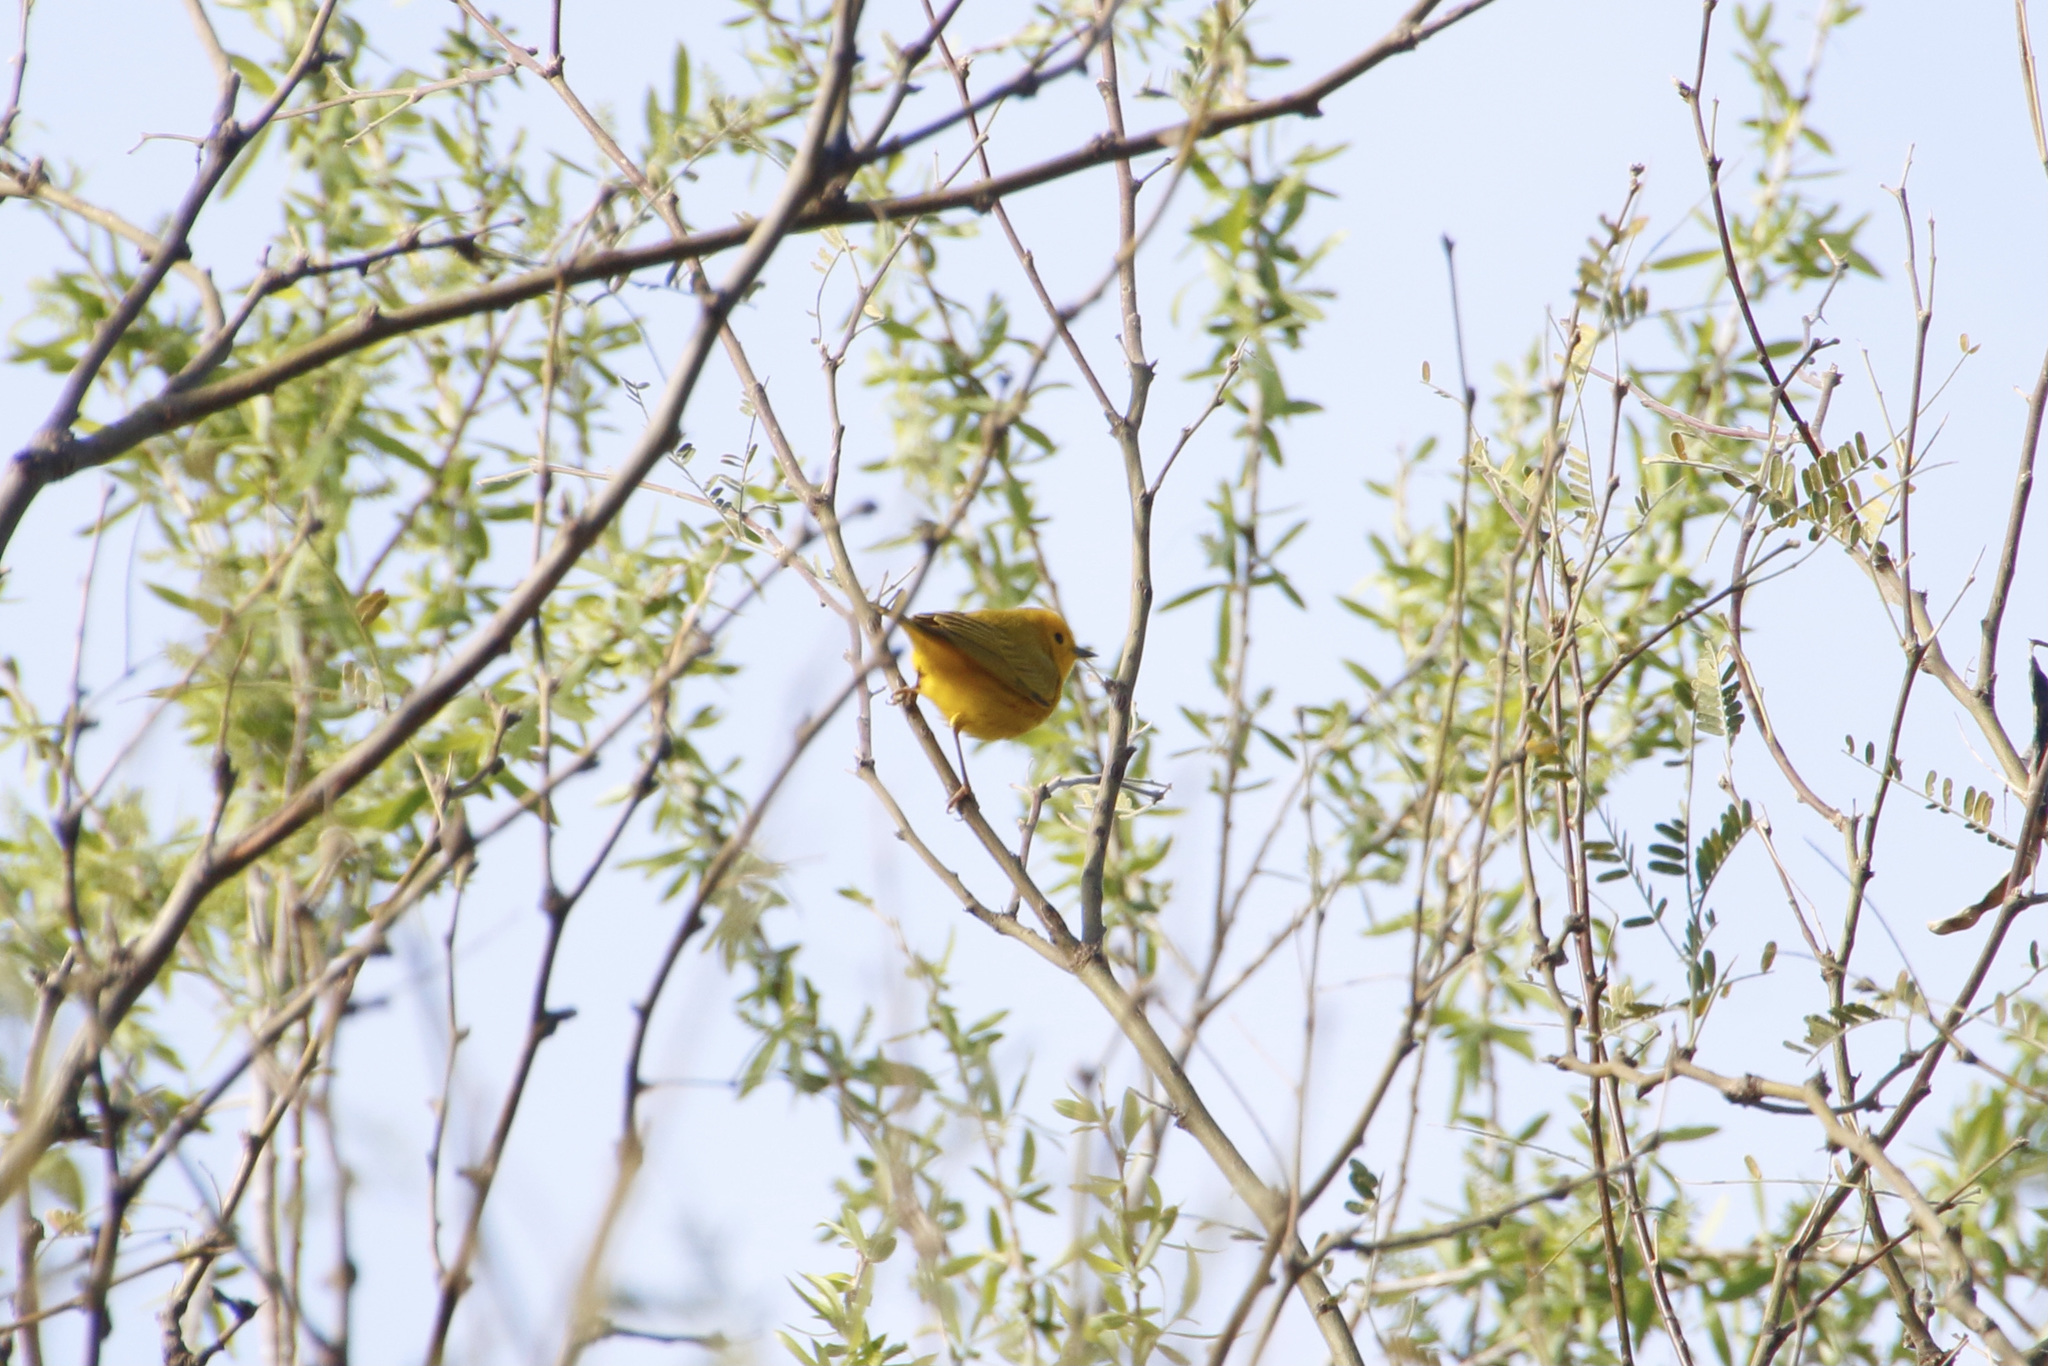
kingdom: Animalia
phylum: Chordata
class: Aves
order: Passeriformes
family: Parulidae
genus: Setophaga
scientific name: Setophaga petechia
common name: Yellow warbler
